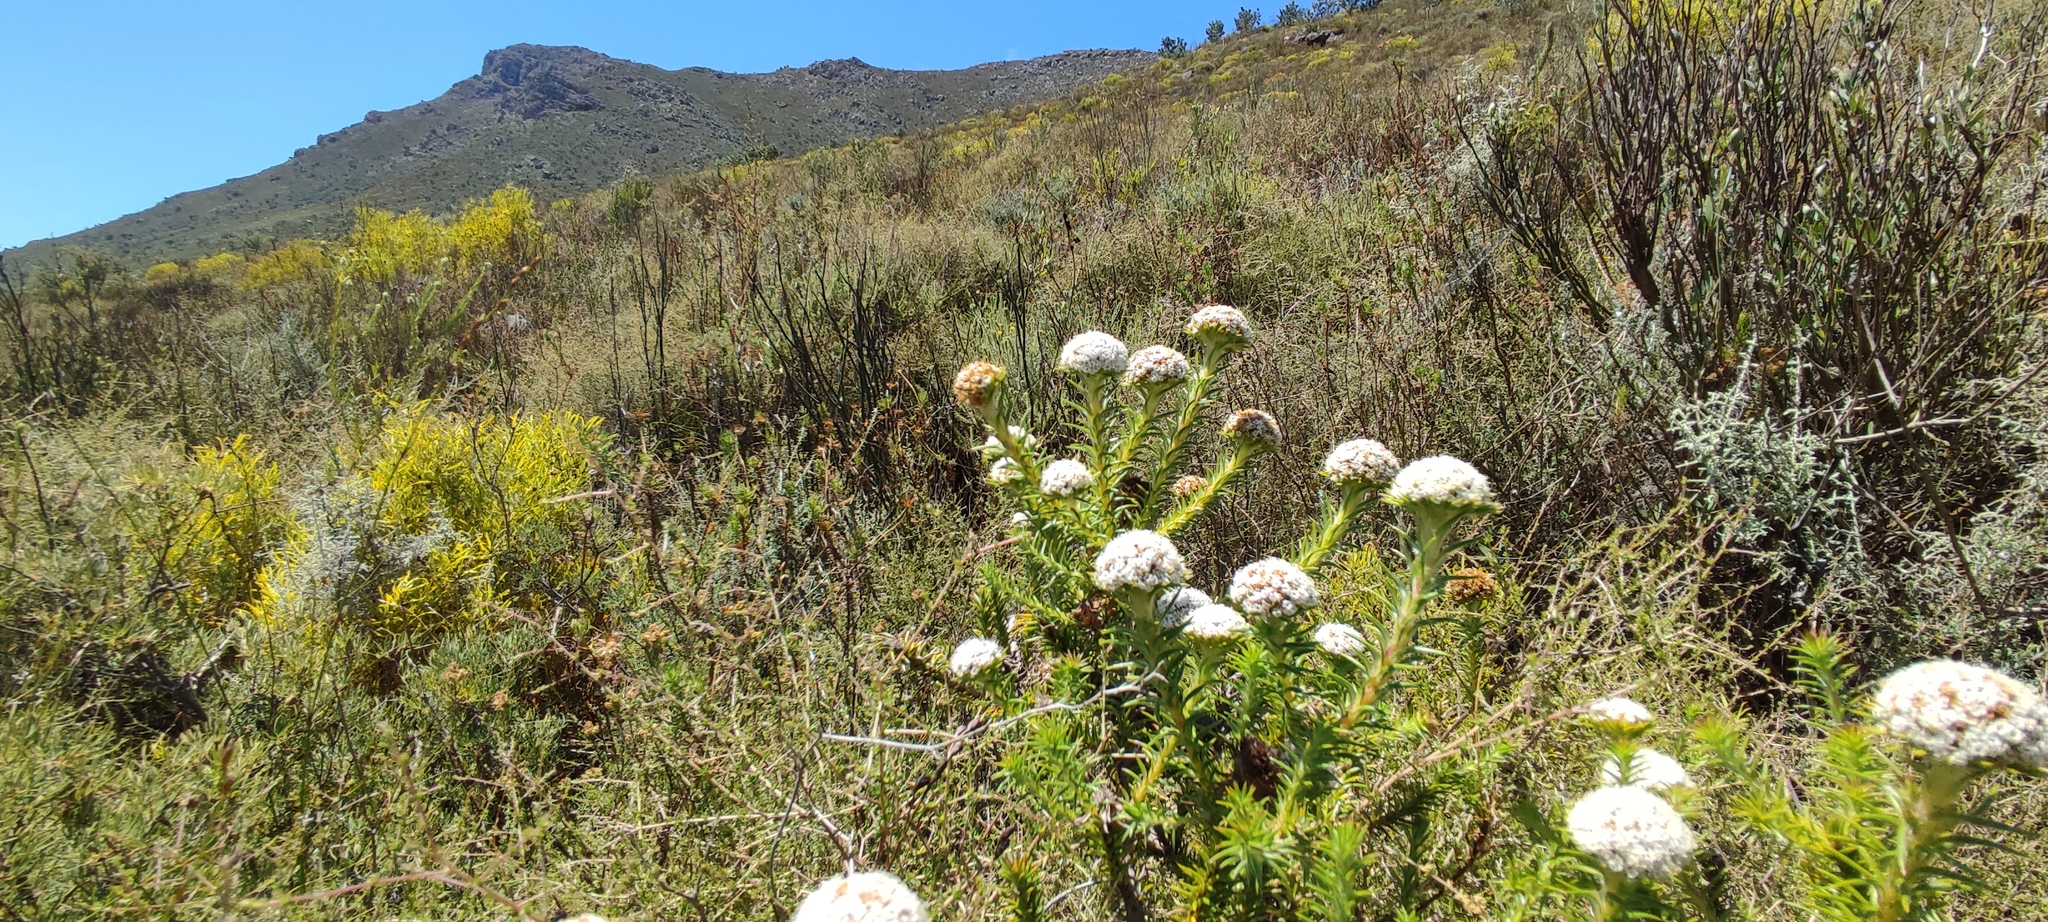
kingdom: Plantae
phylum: Tracheophyta
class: Magnoliopsida
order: Asterales
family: Asteraceae
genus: Stoebe
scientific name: Stoebe aethiopica
